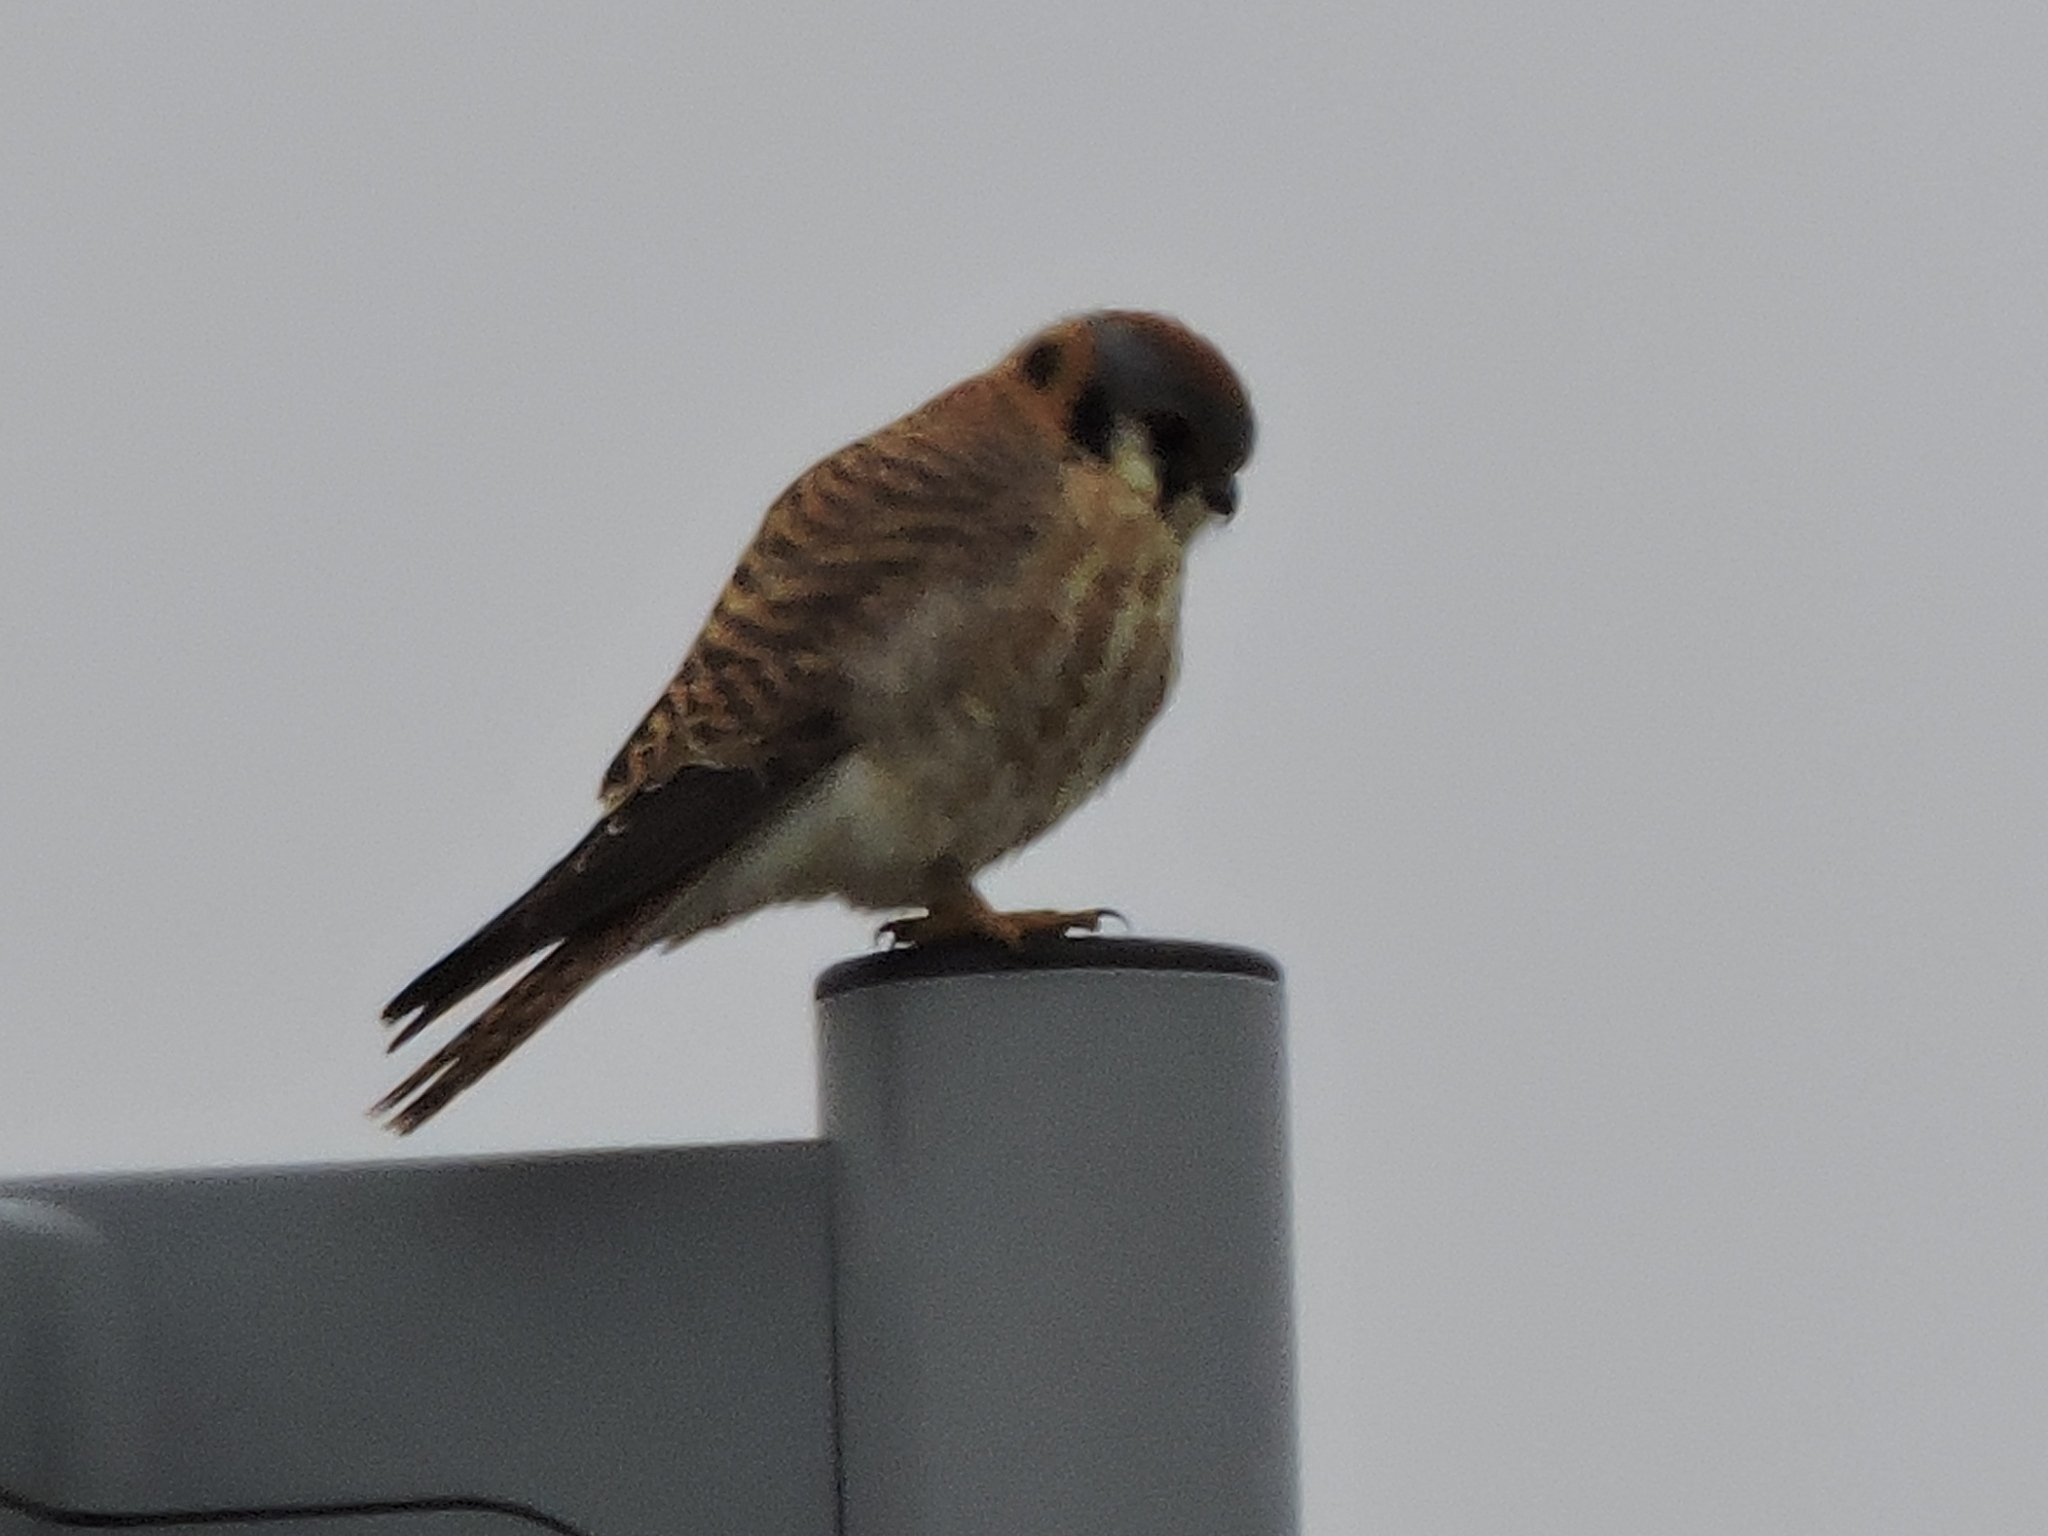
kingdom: Animalia
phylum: Chordata
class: Aves
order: Falconiformes
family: Falconidae
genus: Falco
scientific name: Falco sparverius
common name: American kestrel
